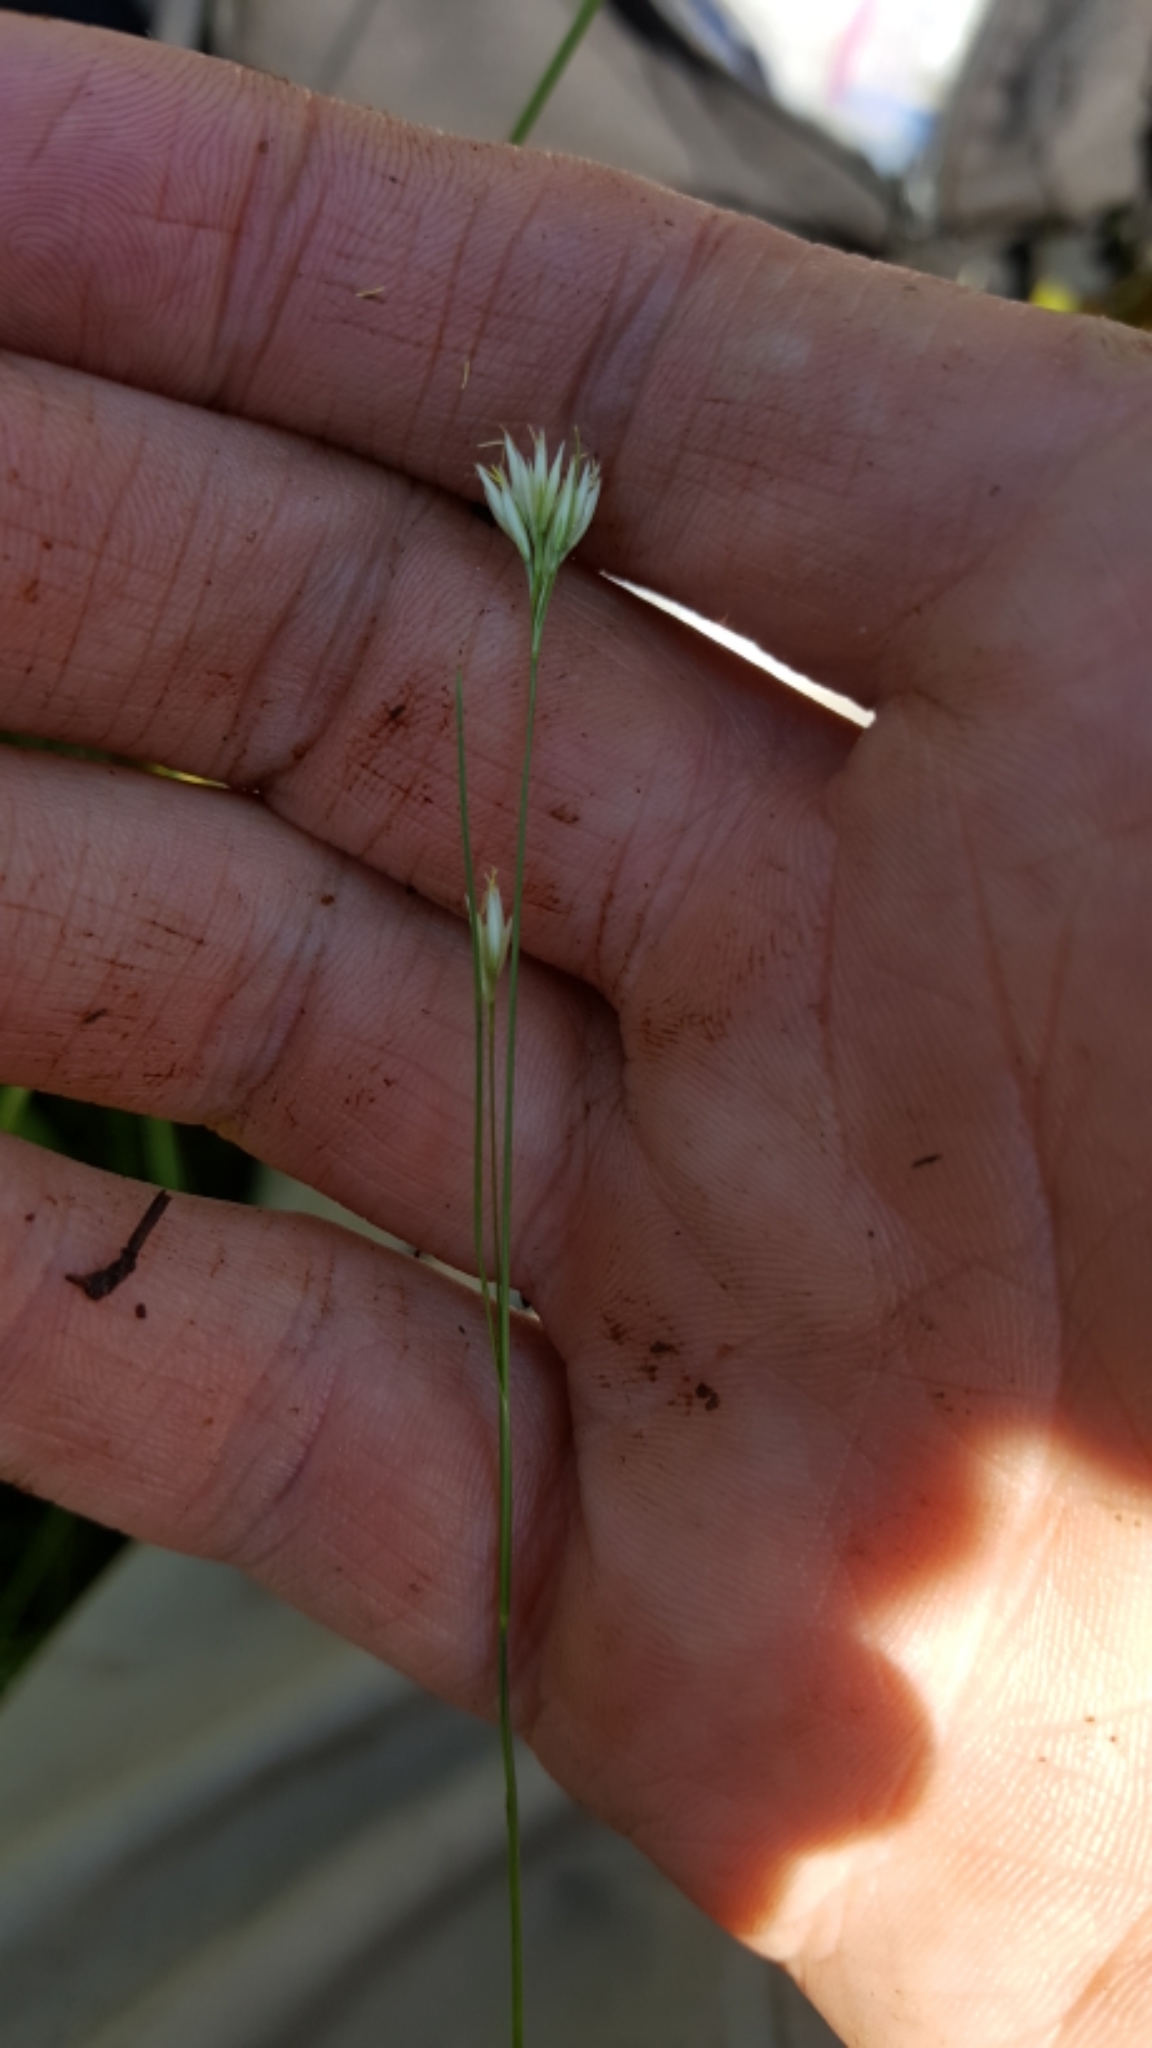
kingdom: Plantae
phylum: Tracheophyta
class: Liliopsida
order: Poales
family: Cyperaceae
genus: Rhynchospora
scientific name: Rhynchospora alba
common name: White beak-sedge
